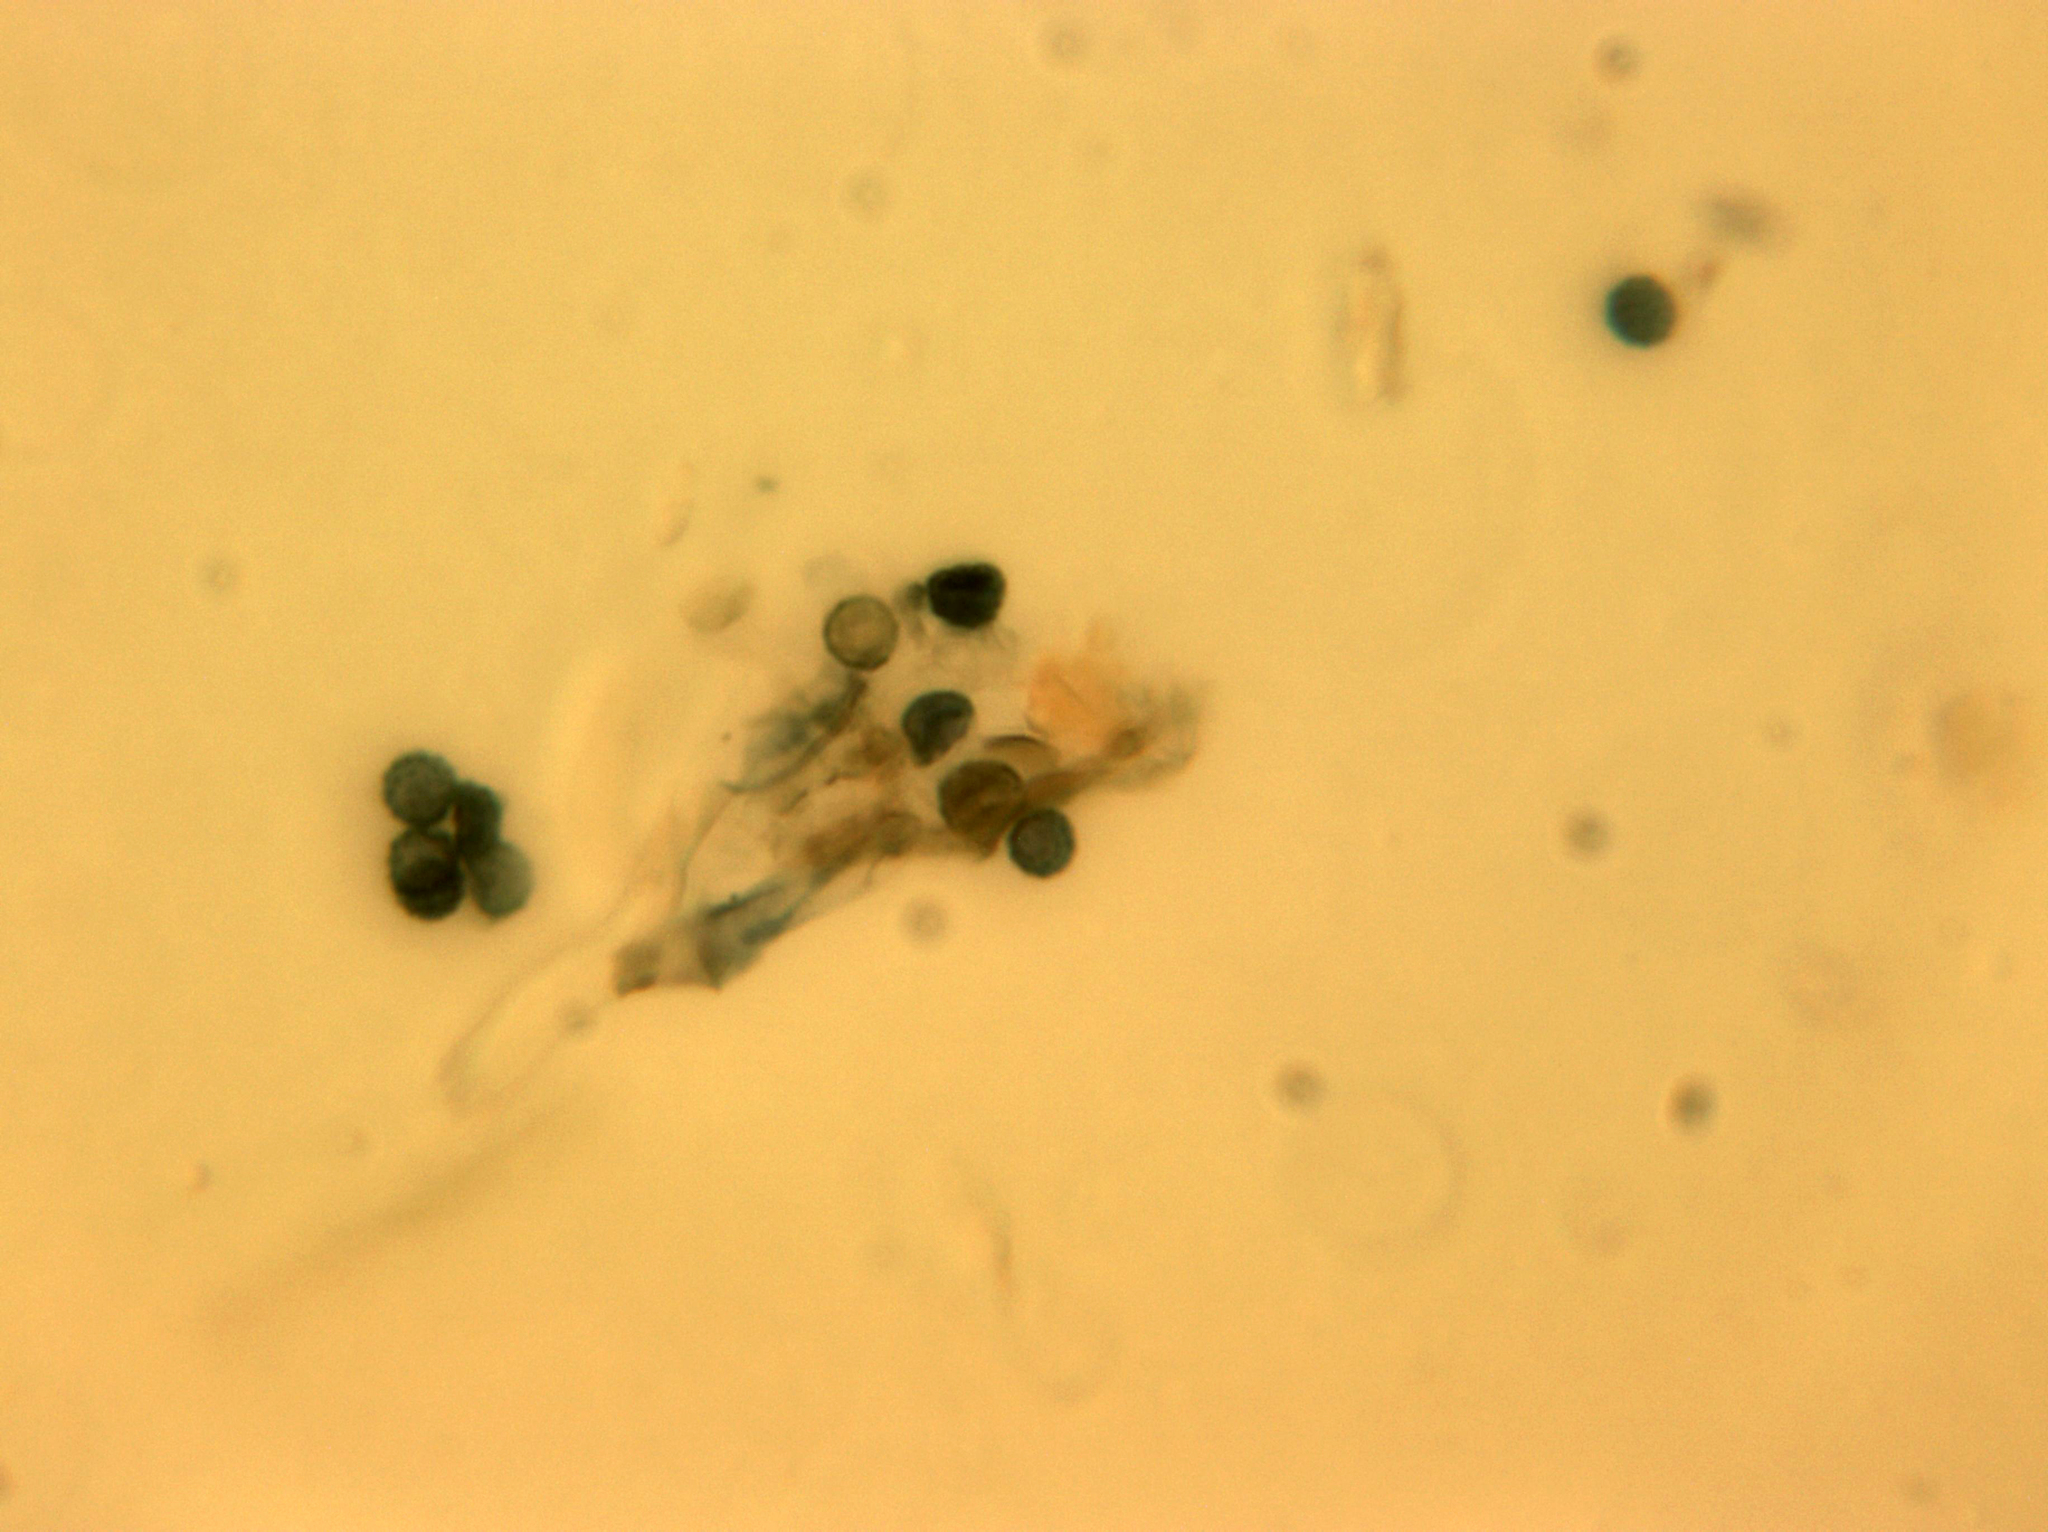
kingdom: Fungi
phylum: Basidiomycota
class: Agaricomycetes
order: Thelephorales
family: Thelephoraceae
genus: Amaurodon
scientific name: Amaurodon viridis
